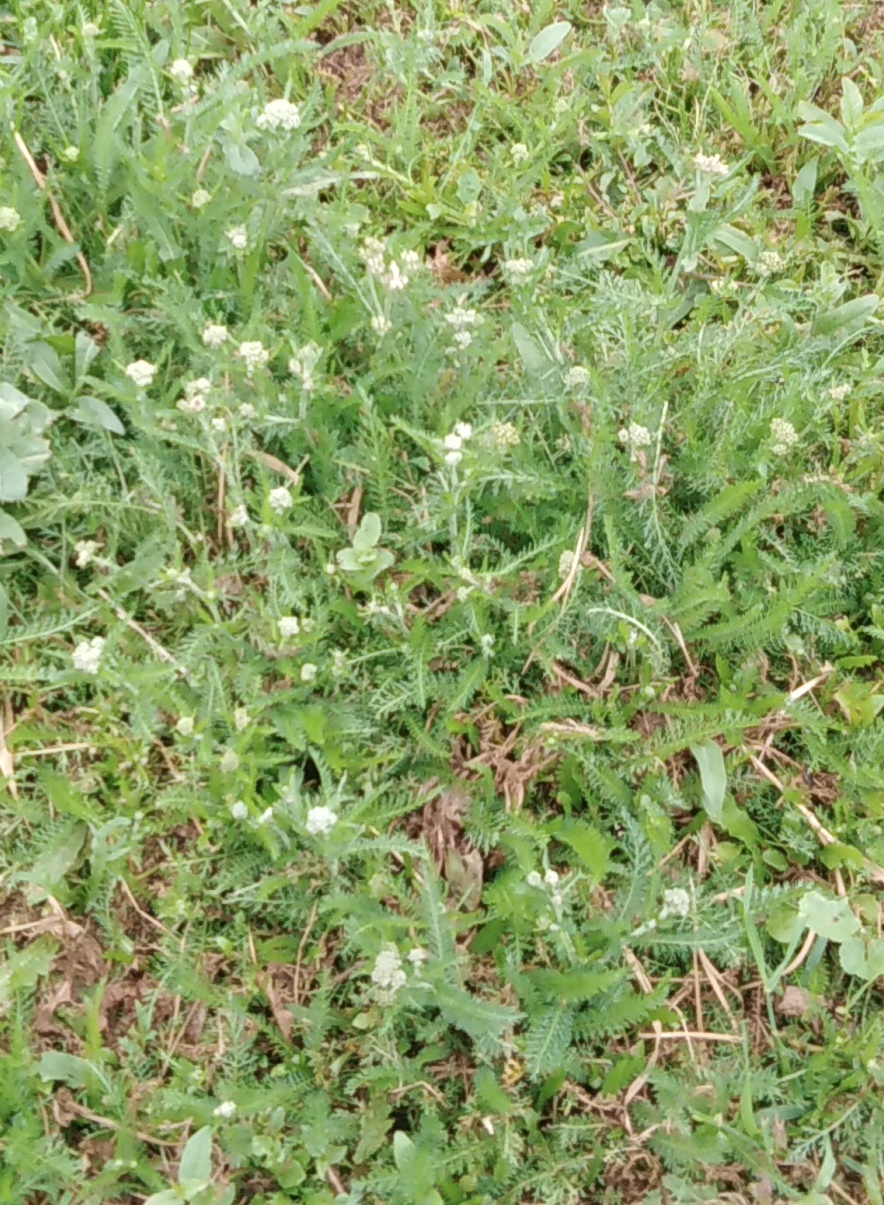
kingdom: Plantae
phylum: Tracheophyta
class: Magnoliopsida
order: Asterales
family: Asteraceae
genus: Achillea
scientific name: Achillea millefolium
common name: Yarrow
